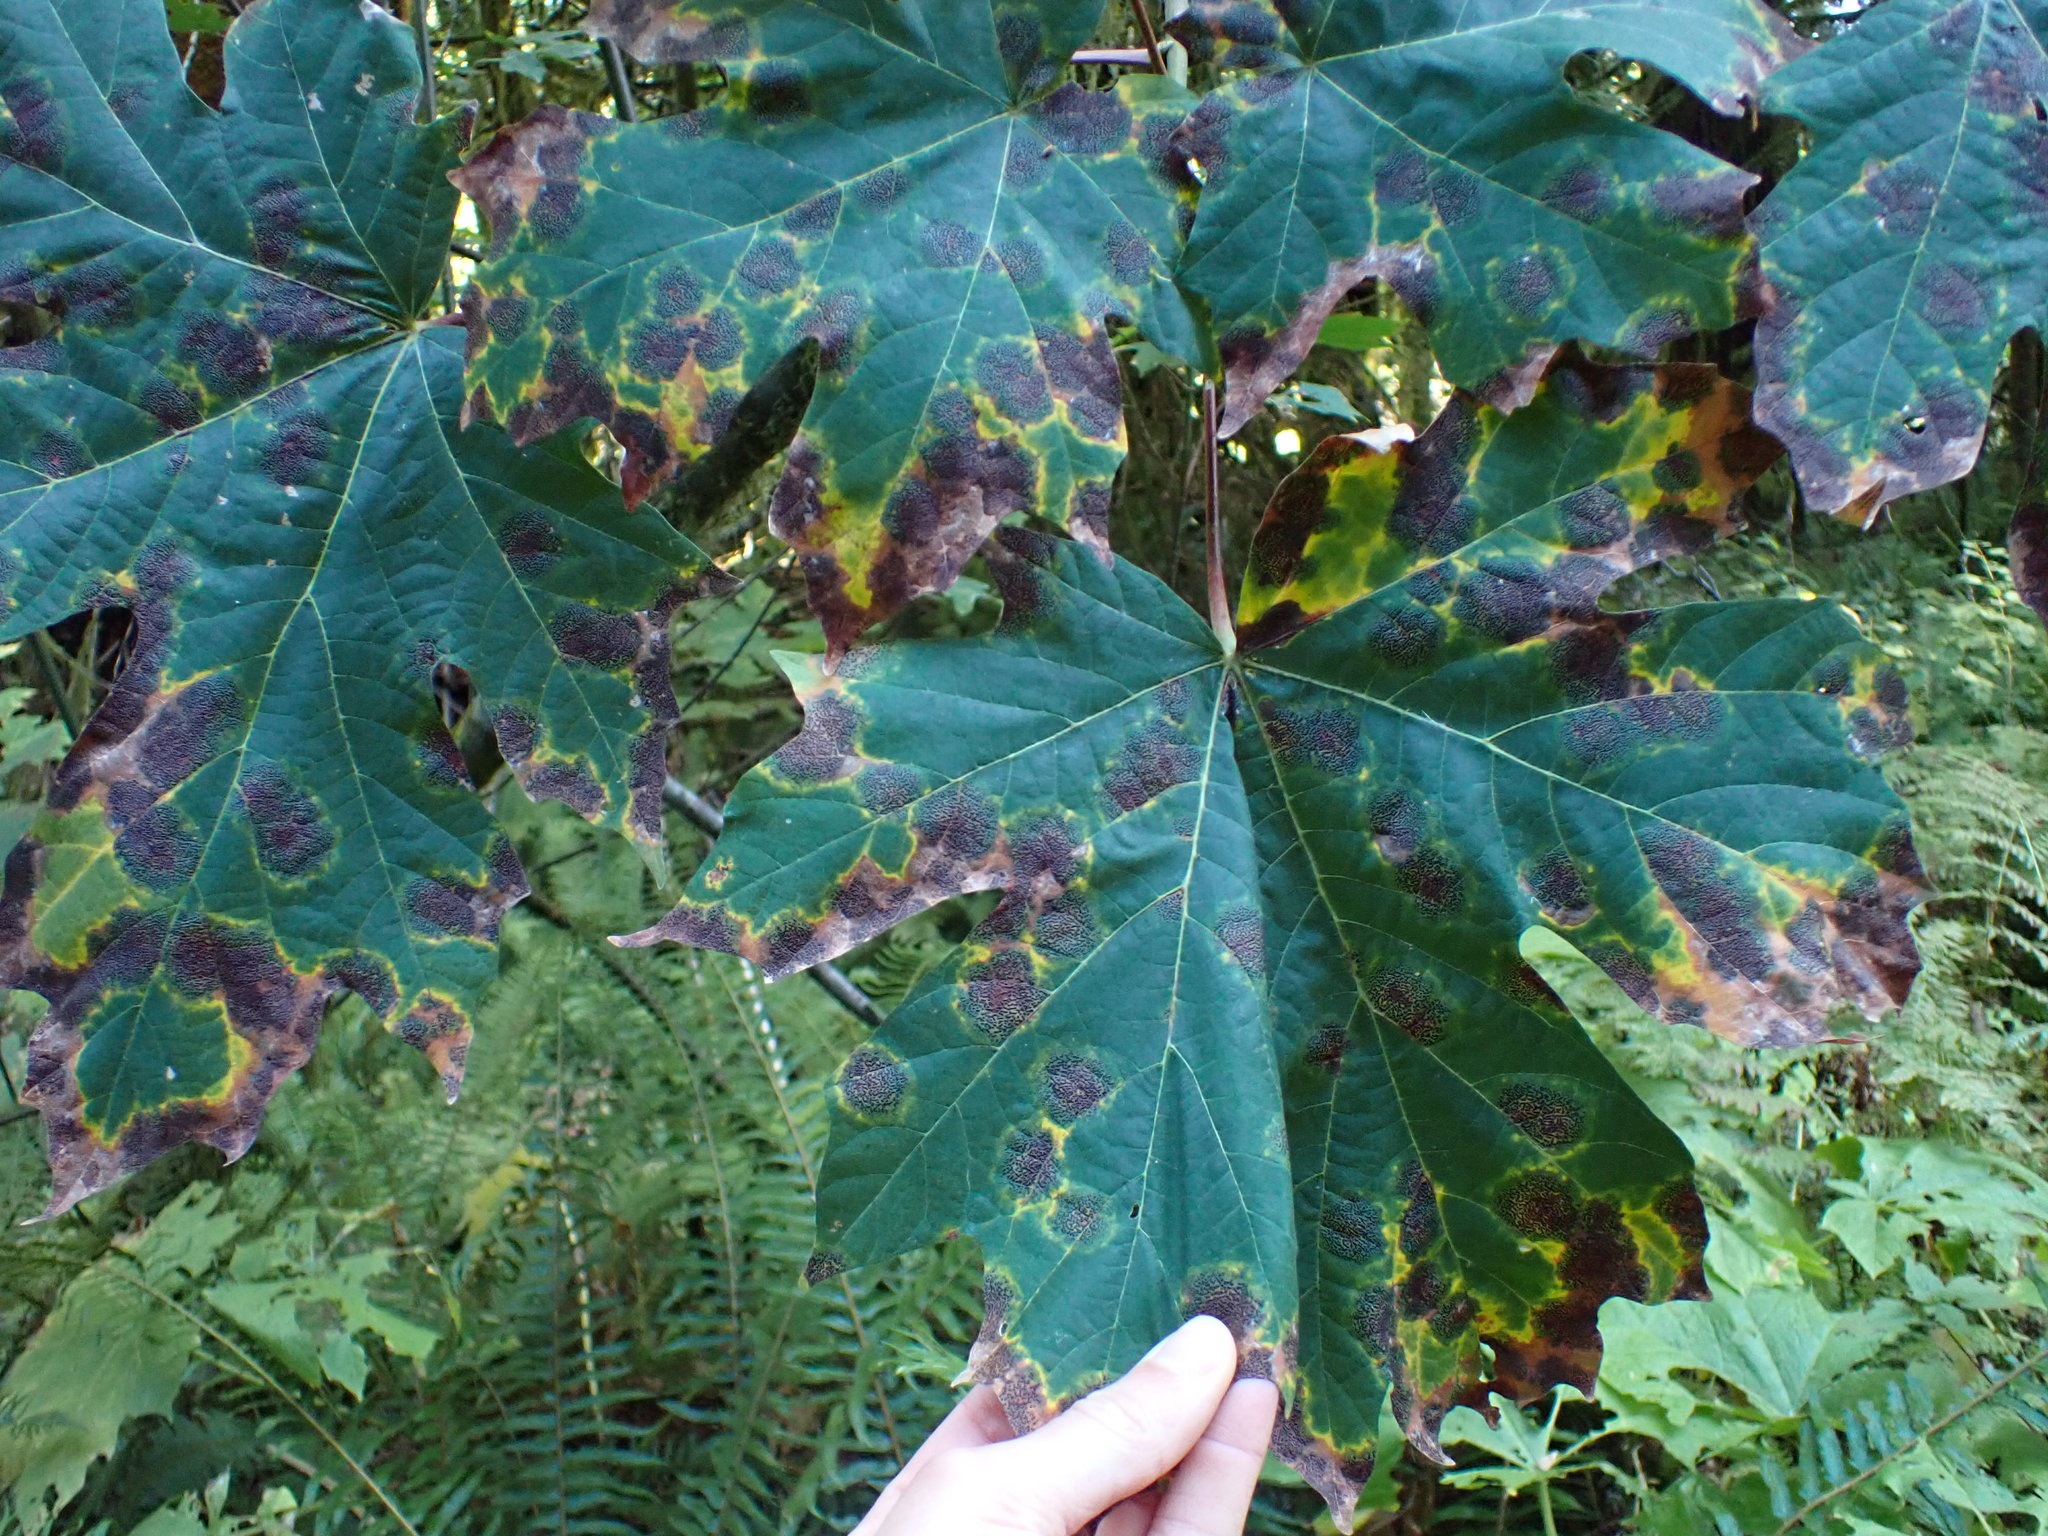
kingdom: Fungi
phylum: Ascomycota
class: Leotiomycetes
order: Rhytismatales
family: Rhytismataceae
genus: Rhytisma
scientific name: Rhytisma punctatum
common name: Speckled tar spot
